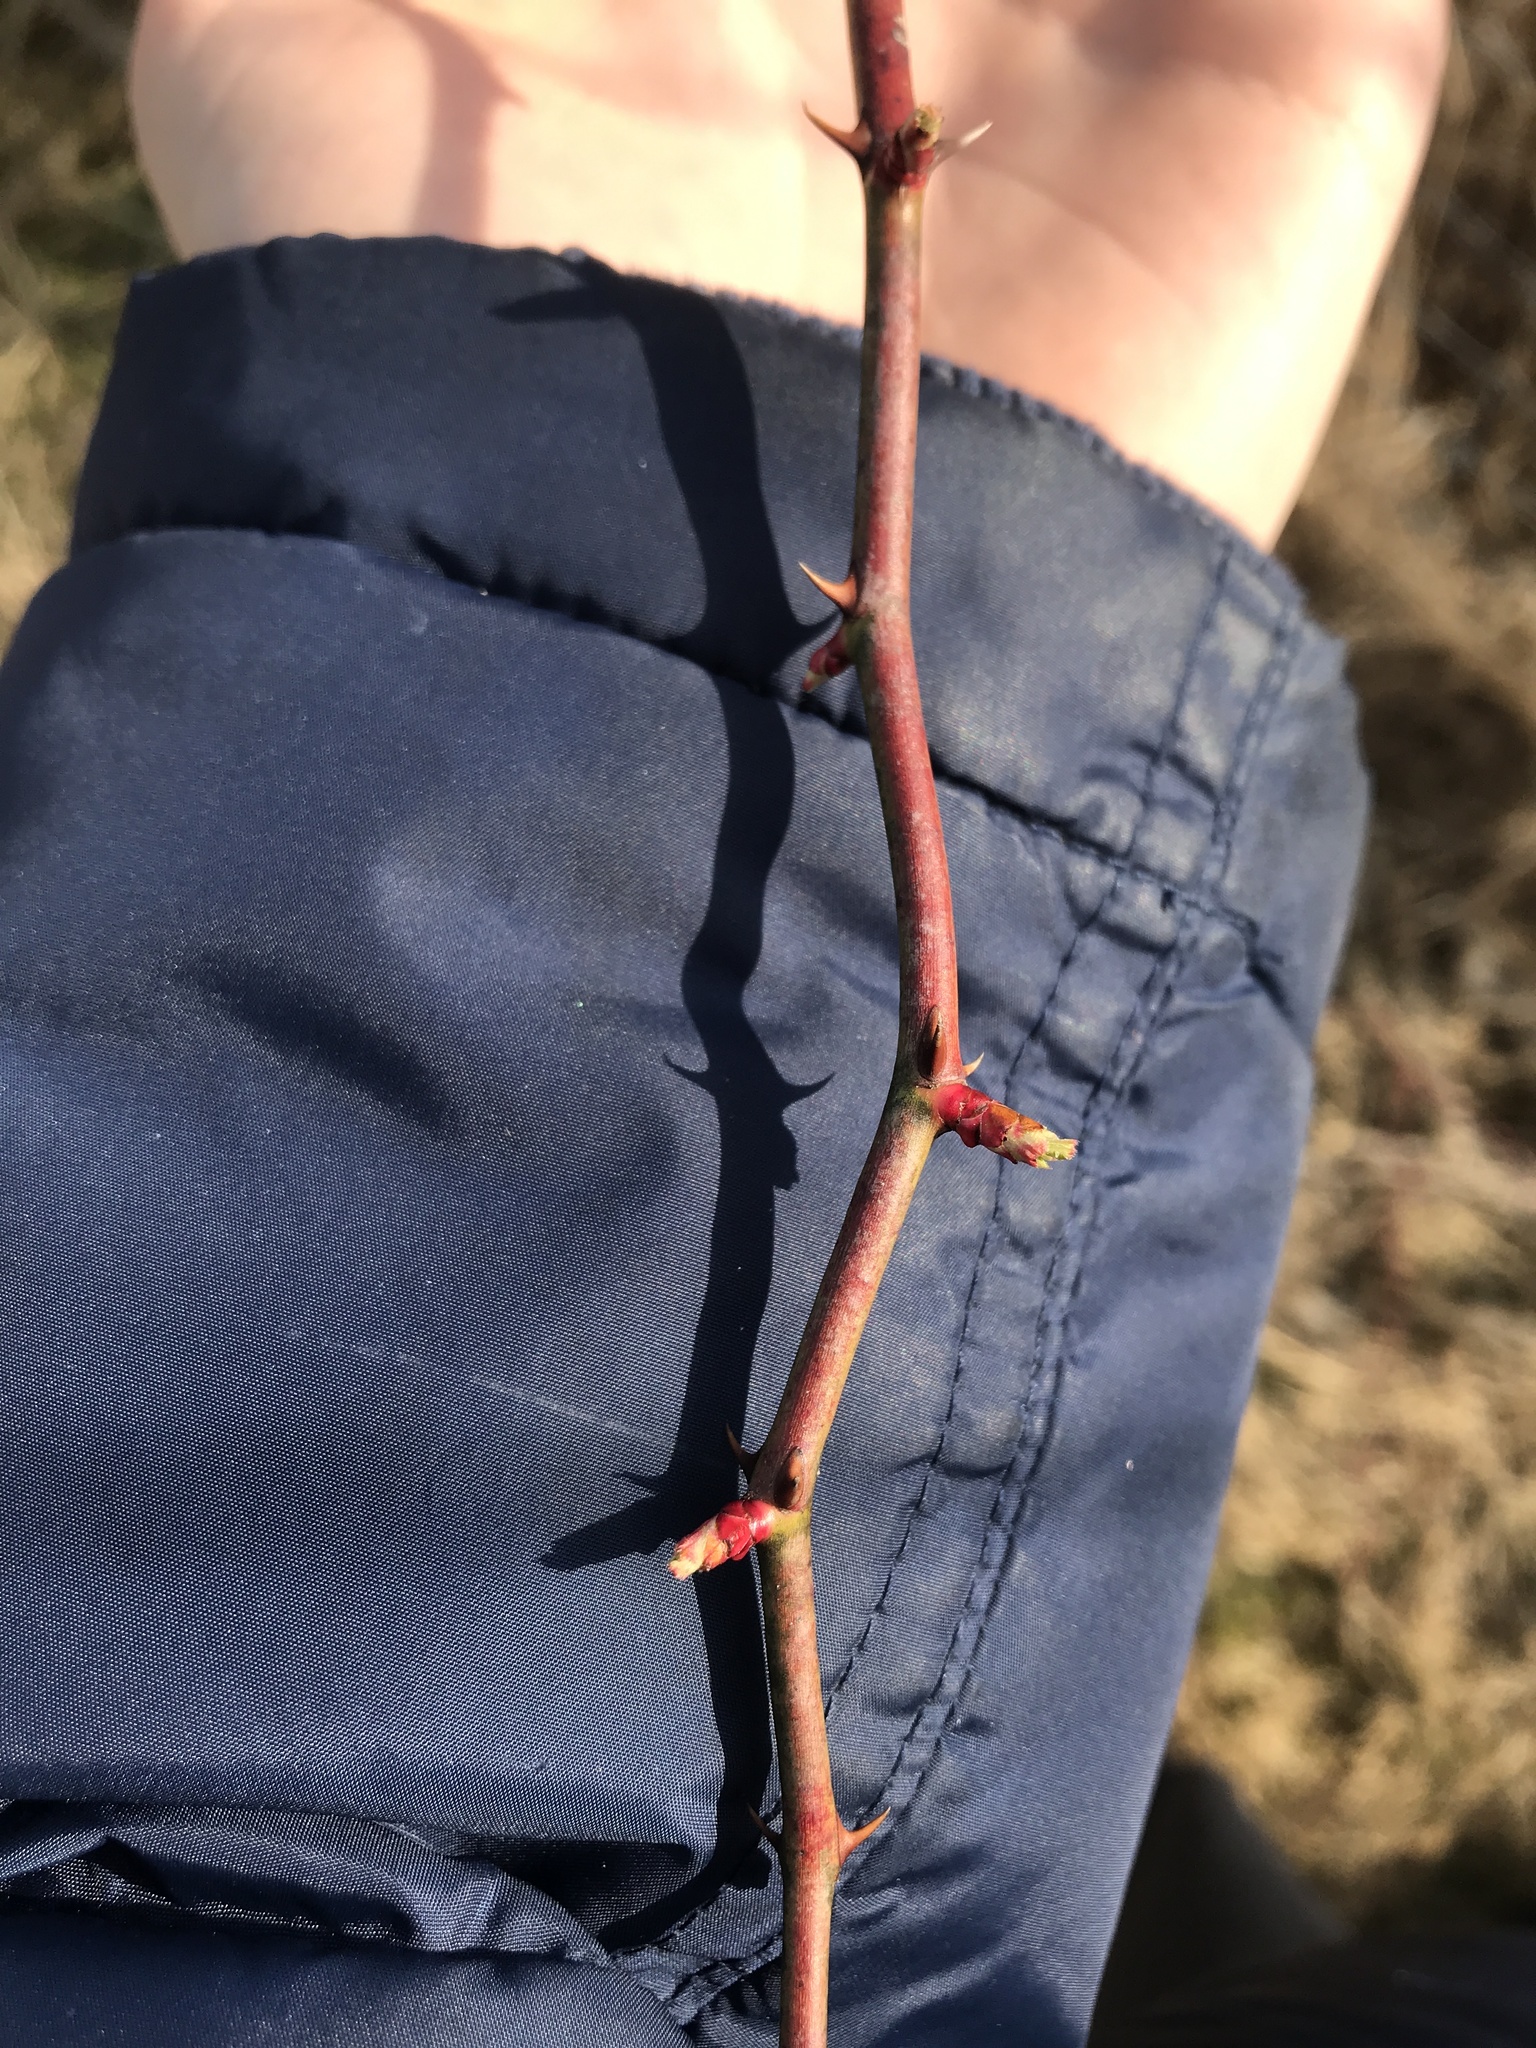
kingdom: Plantae
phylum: Tracheophyta
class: Magnoliopsida
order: Rosales
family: Rosaceae
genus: Rosa
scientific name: Rosa multiflora
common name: Multiflora rose
